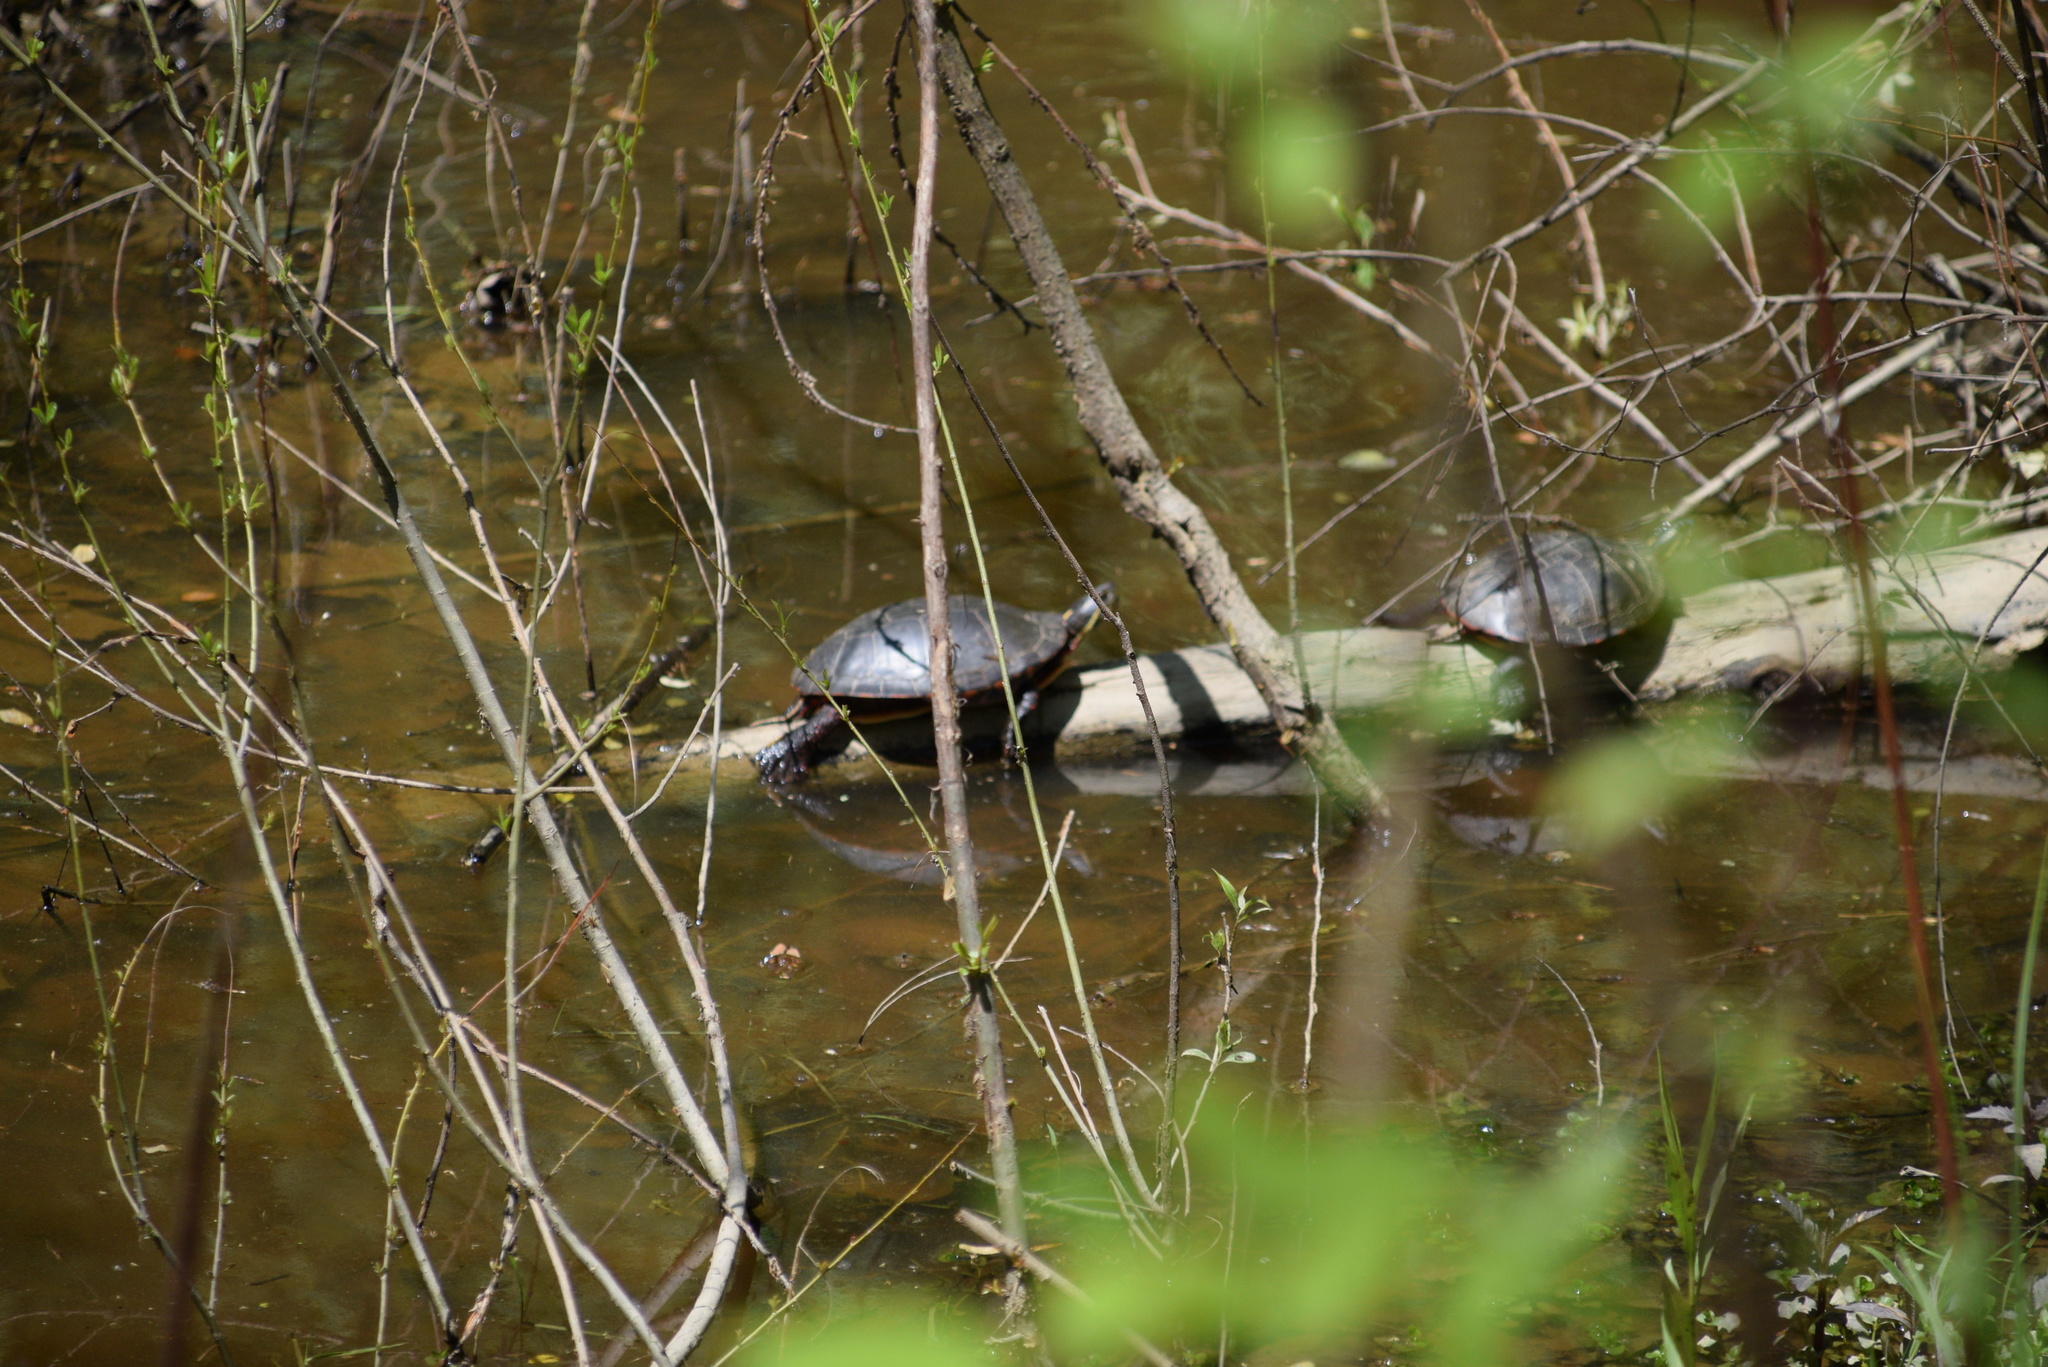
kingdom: Animalia
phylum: Chordata
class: Testudines
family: Emydidae
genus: Chrysemys
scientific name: Chrysemys picta
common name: Painted turtle
